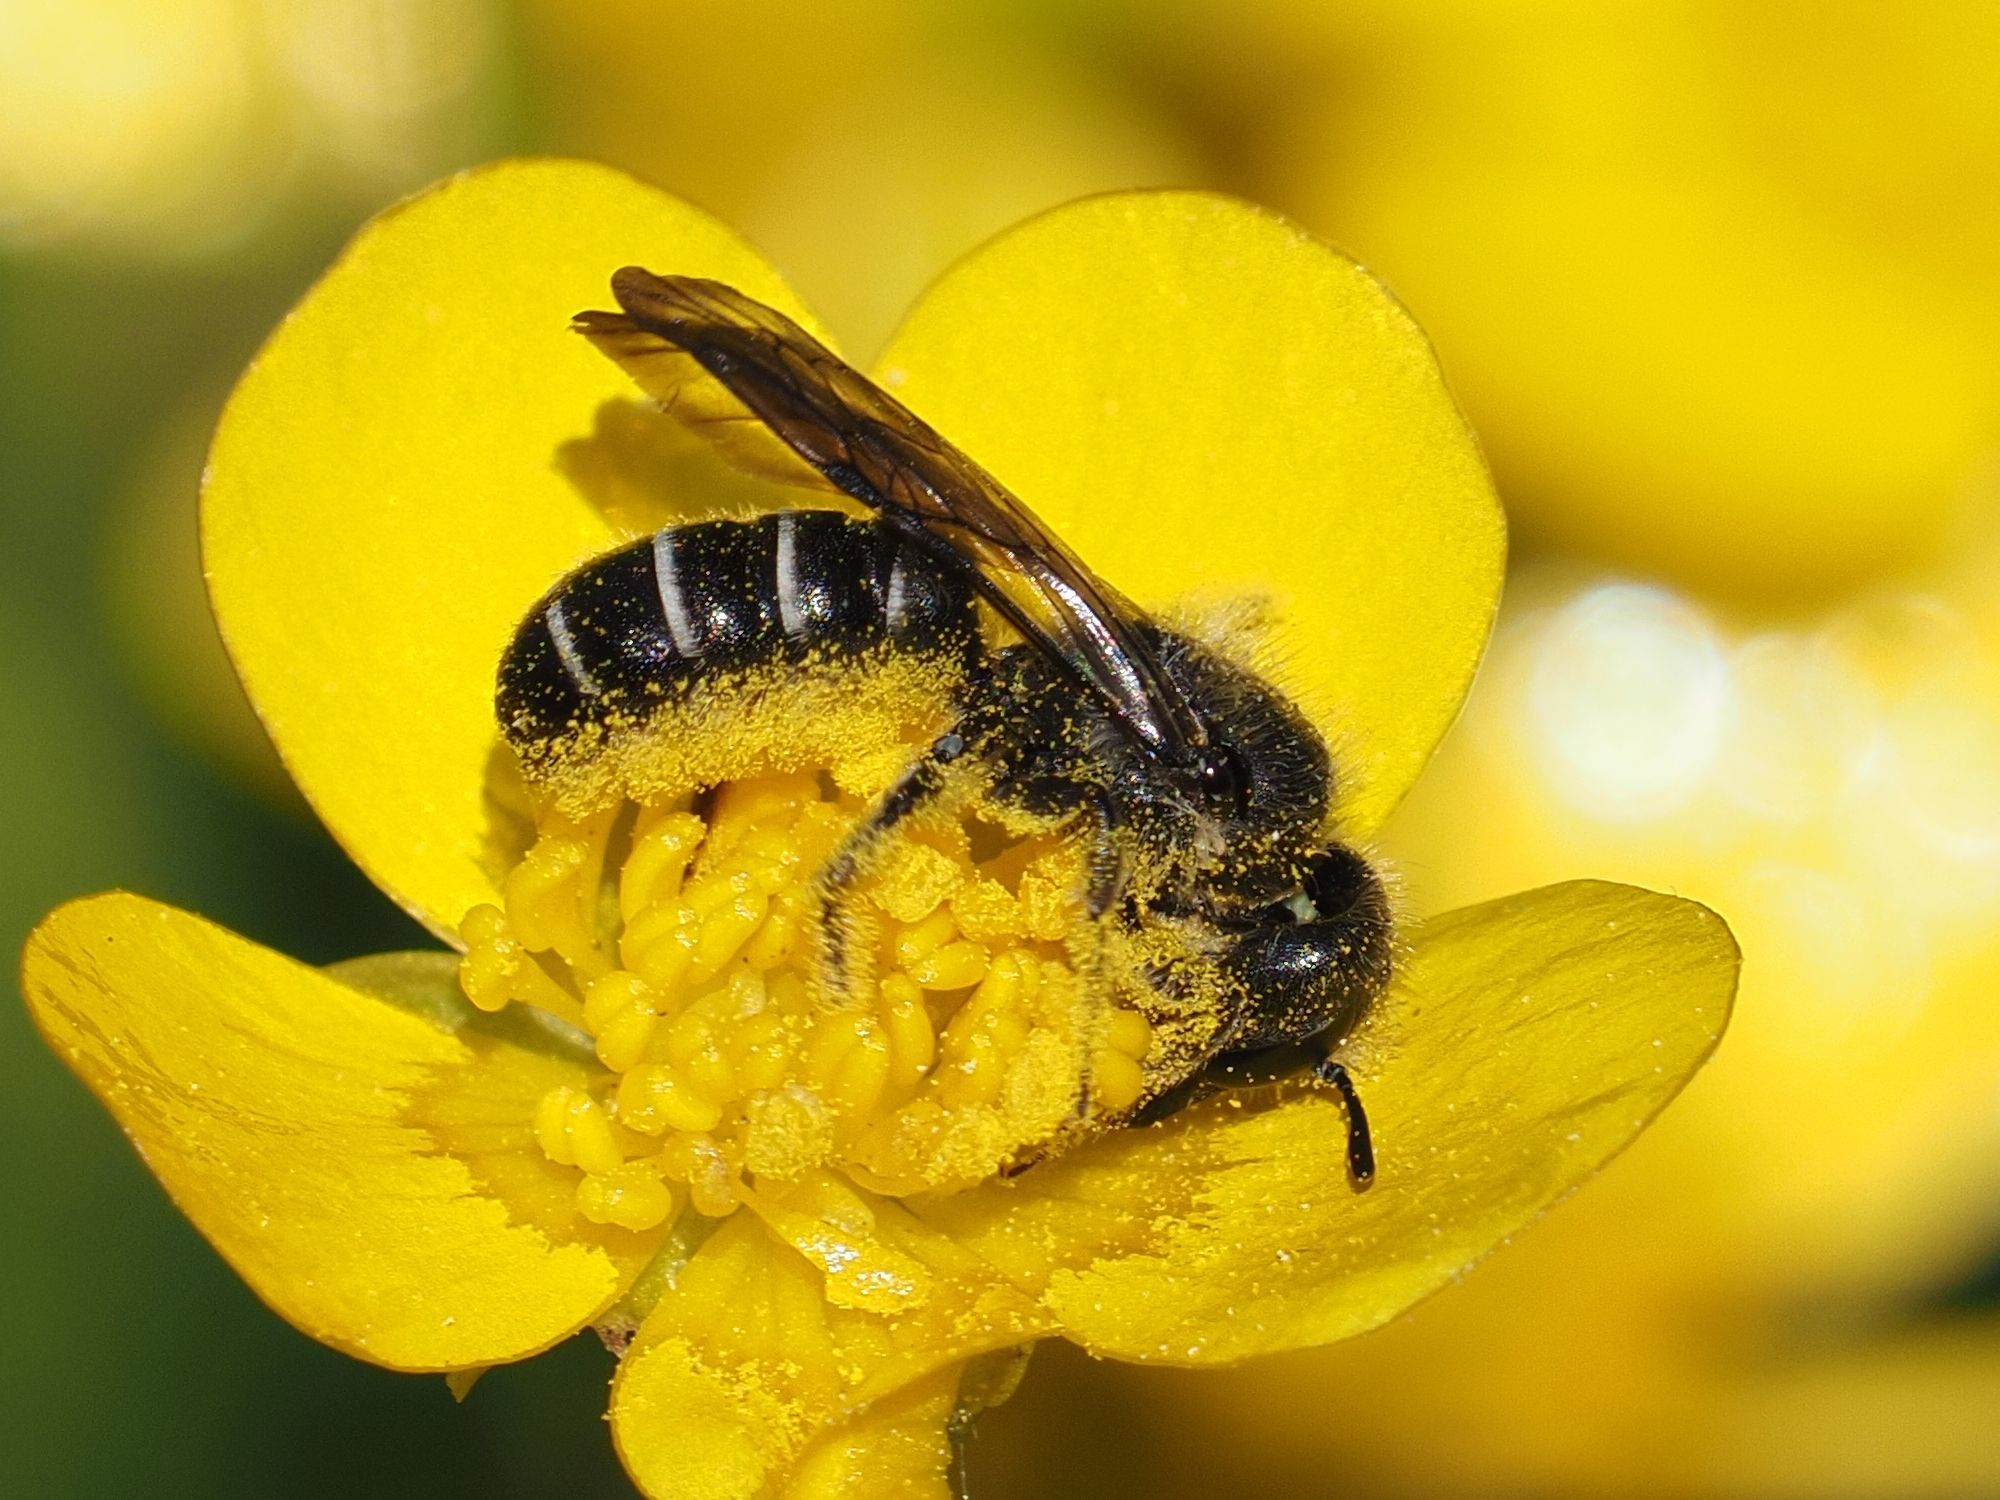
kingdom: Animalia
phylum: Arthropoda
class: Insecta
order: Hymenoptera
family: Megachilidae
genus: Chelostoma
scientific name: Chelostoma florisomne
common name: Sleepy carpenter bee
